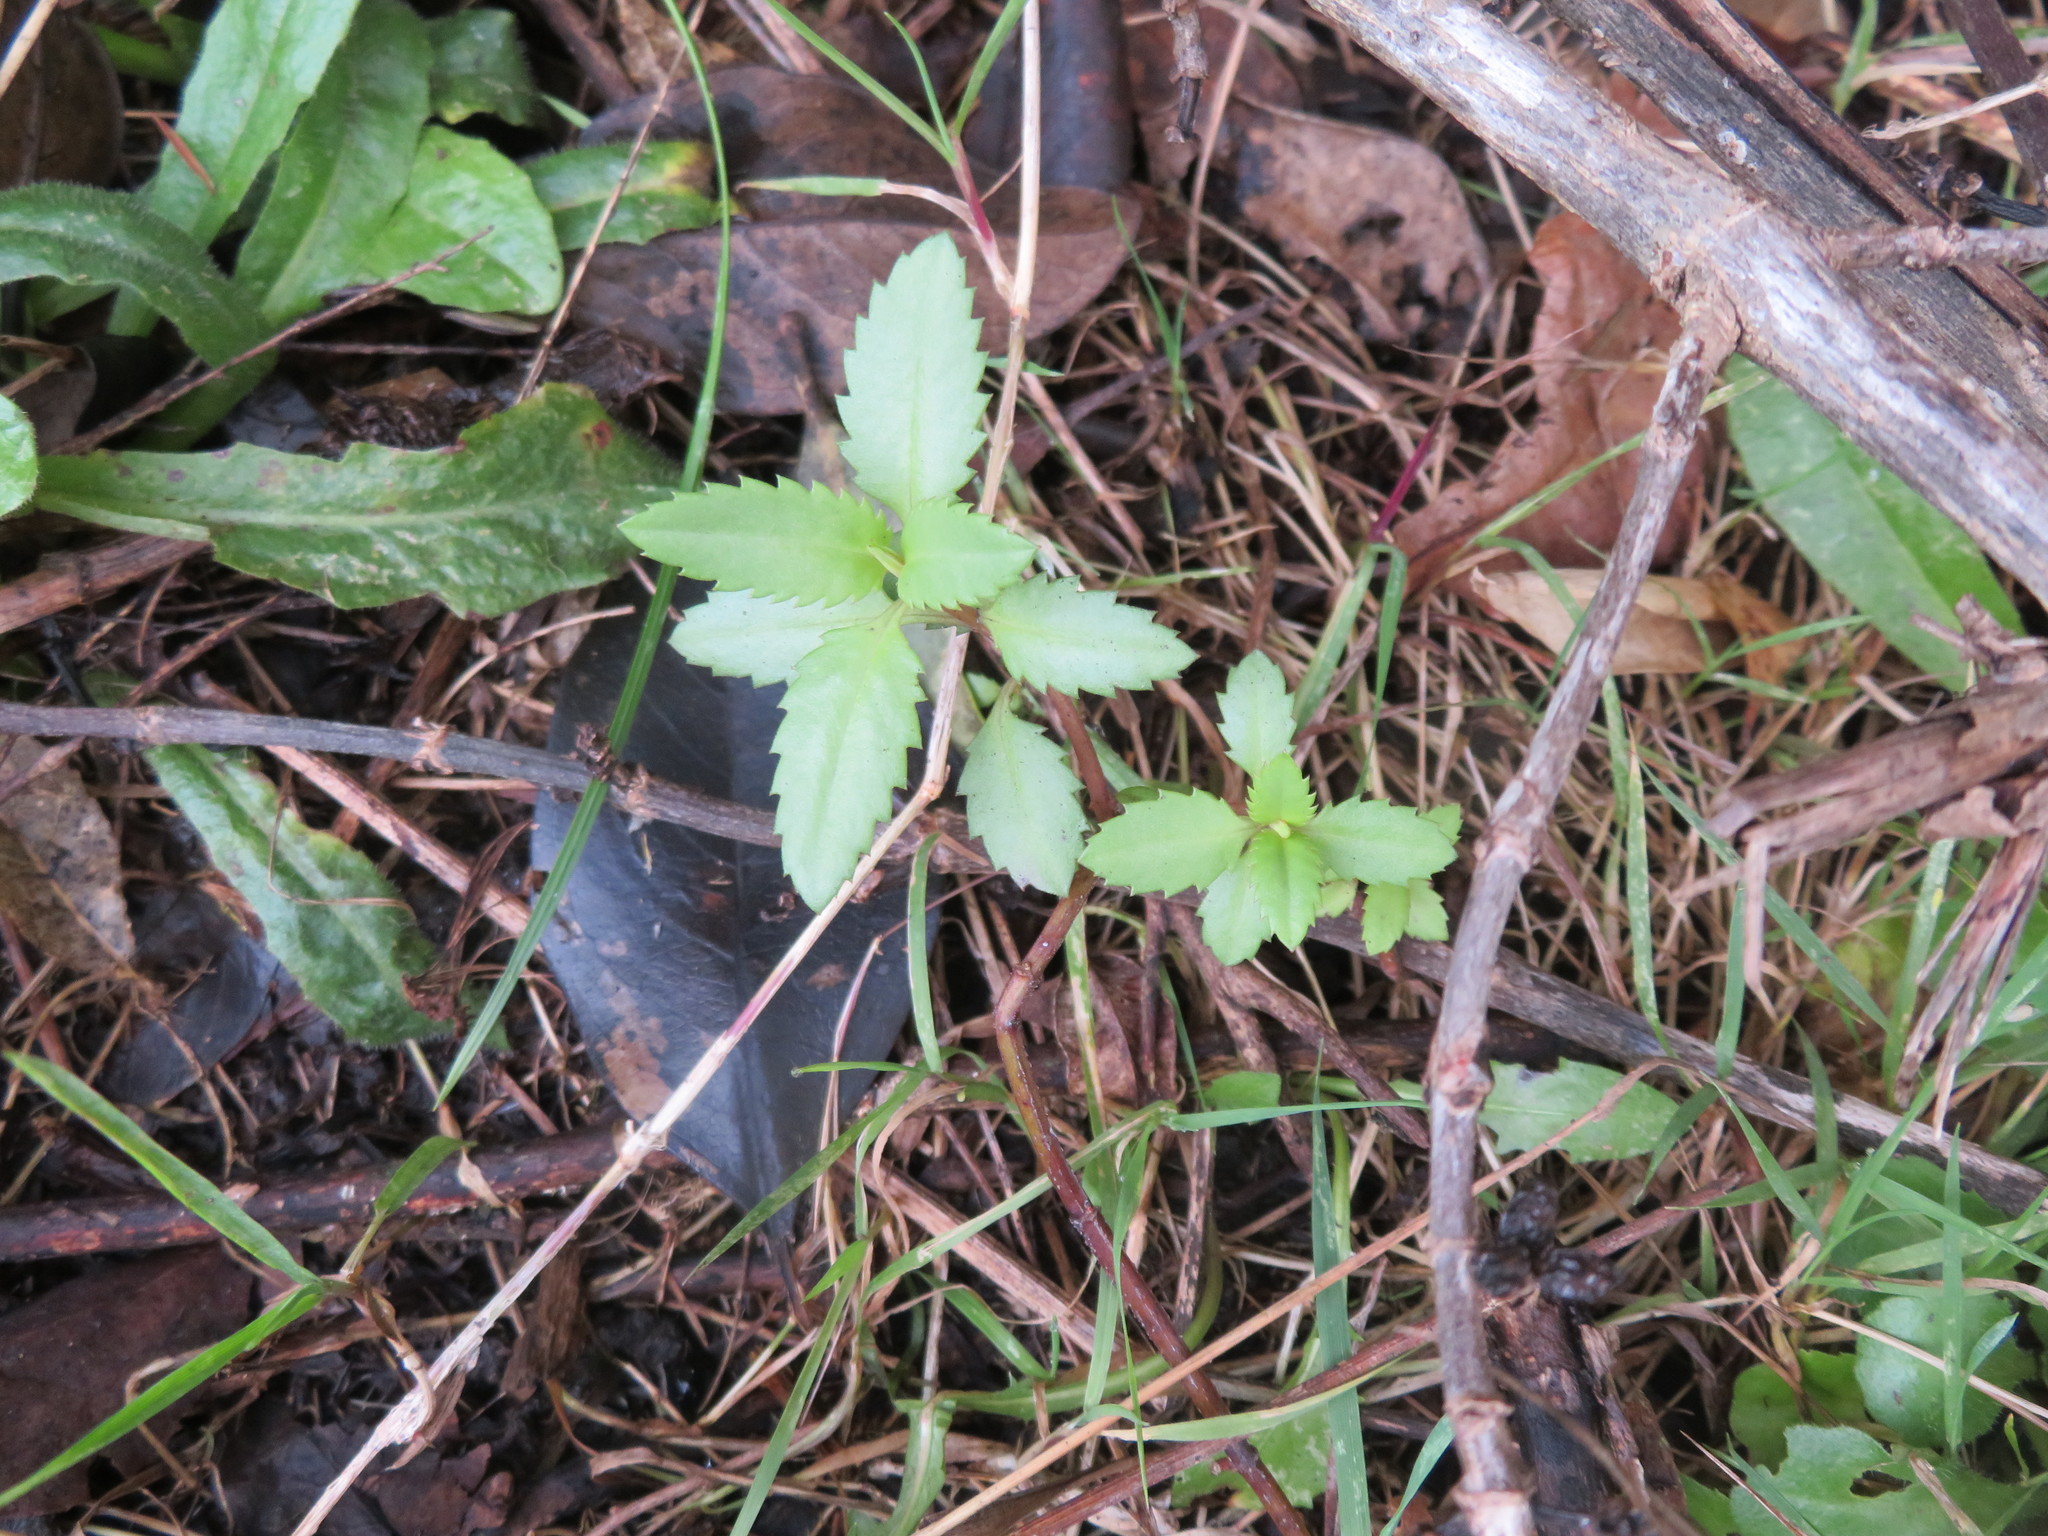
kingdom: Plantae
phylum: Tracheophyta
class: Magnoliopsida
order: Saxifragales
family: Haloragaceae
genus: Haloragis
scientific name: Haloragis erecta
